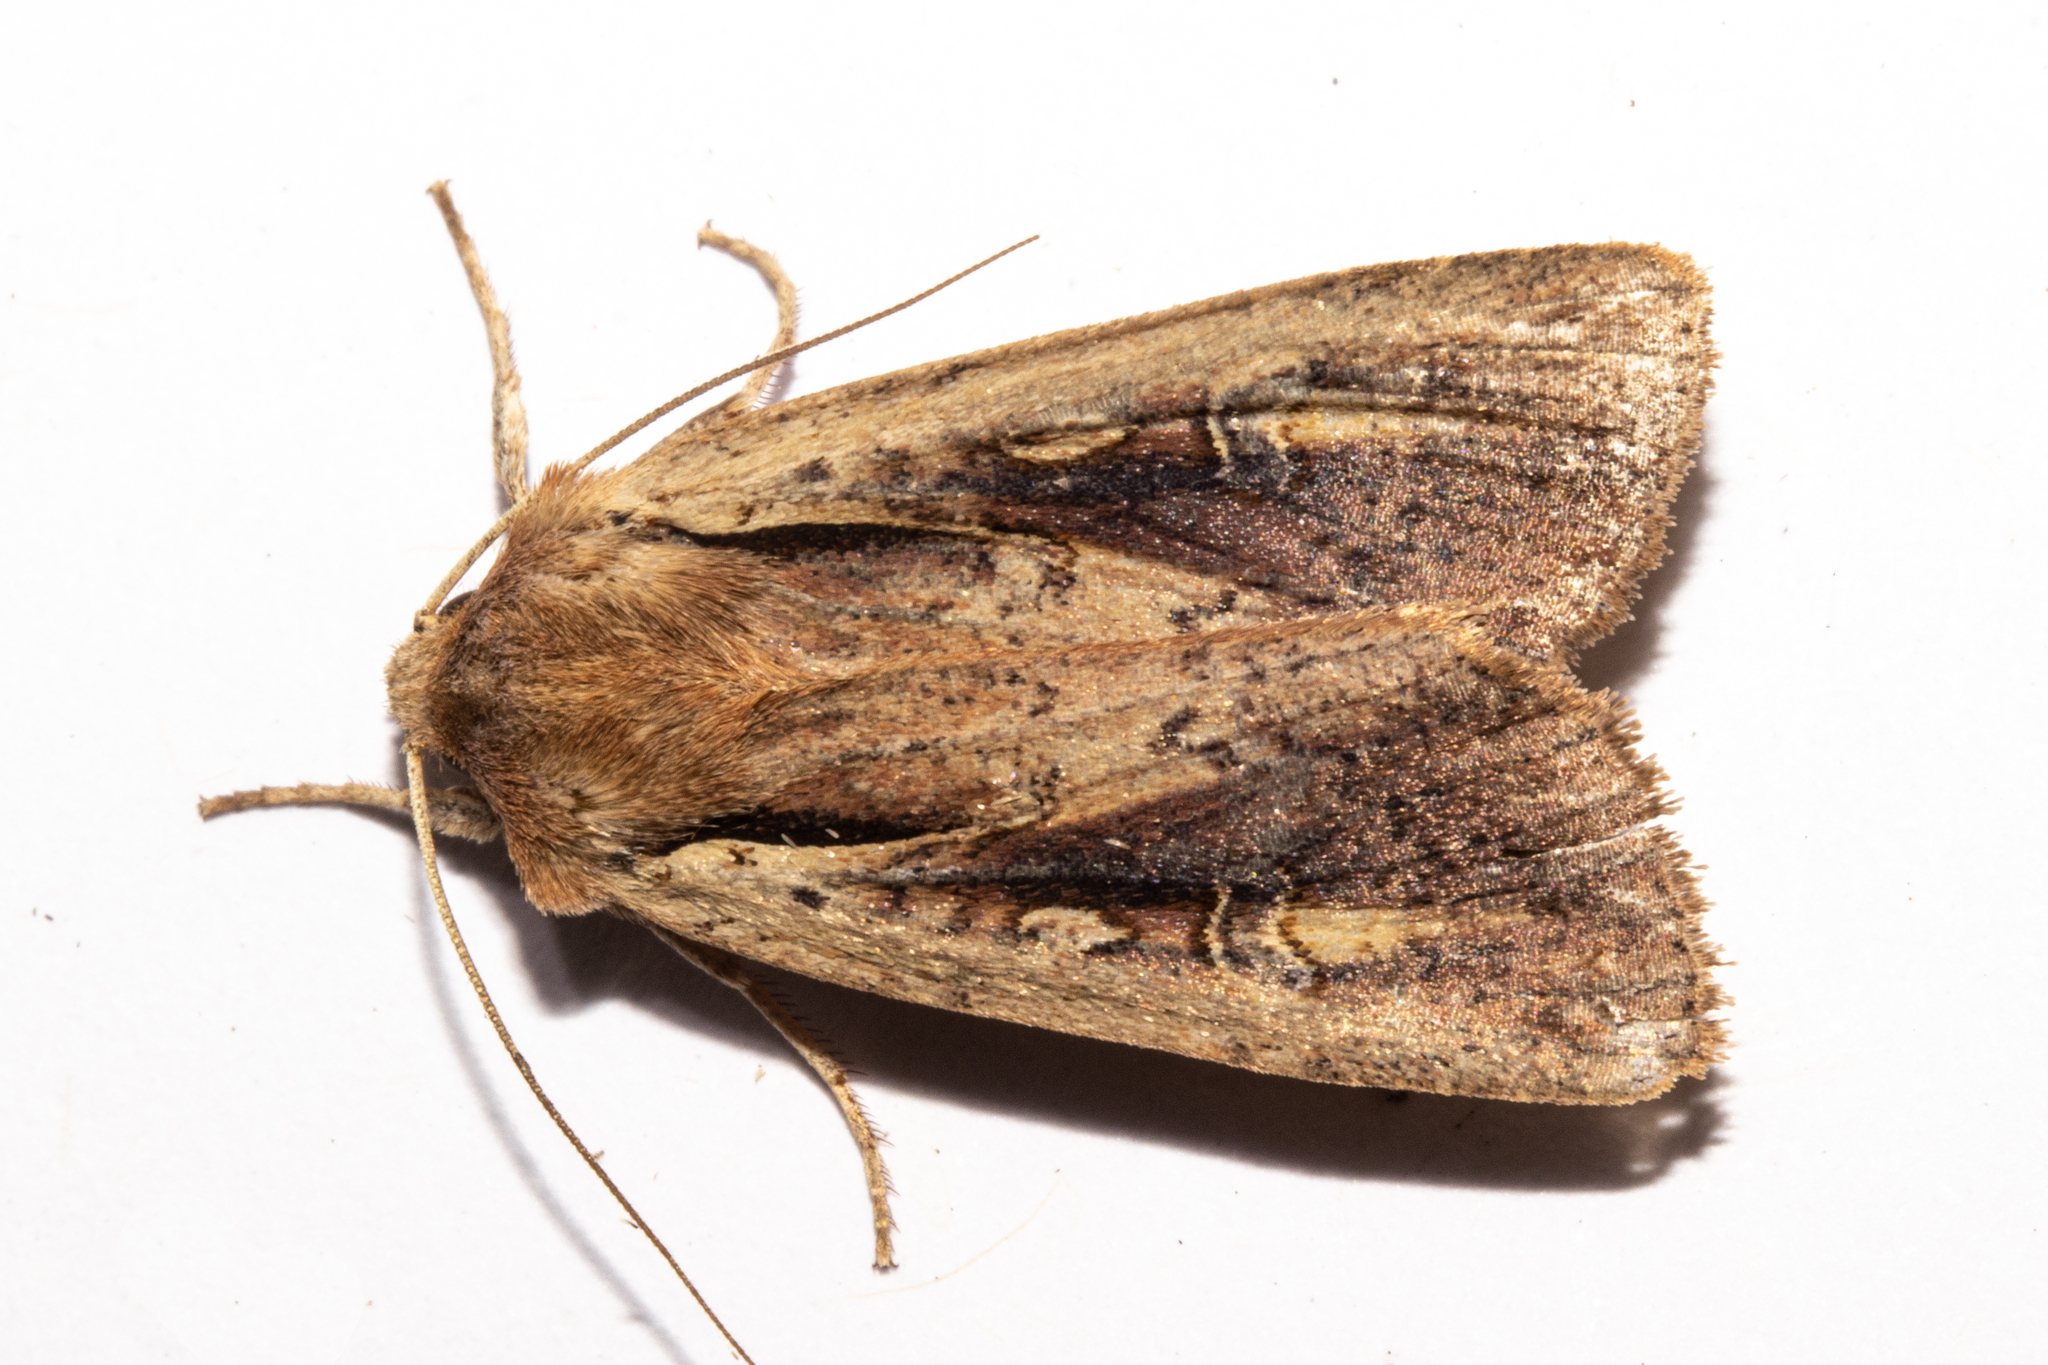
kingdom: Animalia
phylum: Arthropoda
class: Insecta
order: Lepidoptera
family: Noctuidae
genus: Ichneutica
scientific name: Ichneutica atristriga
